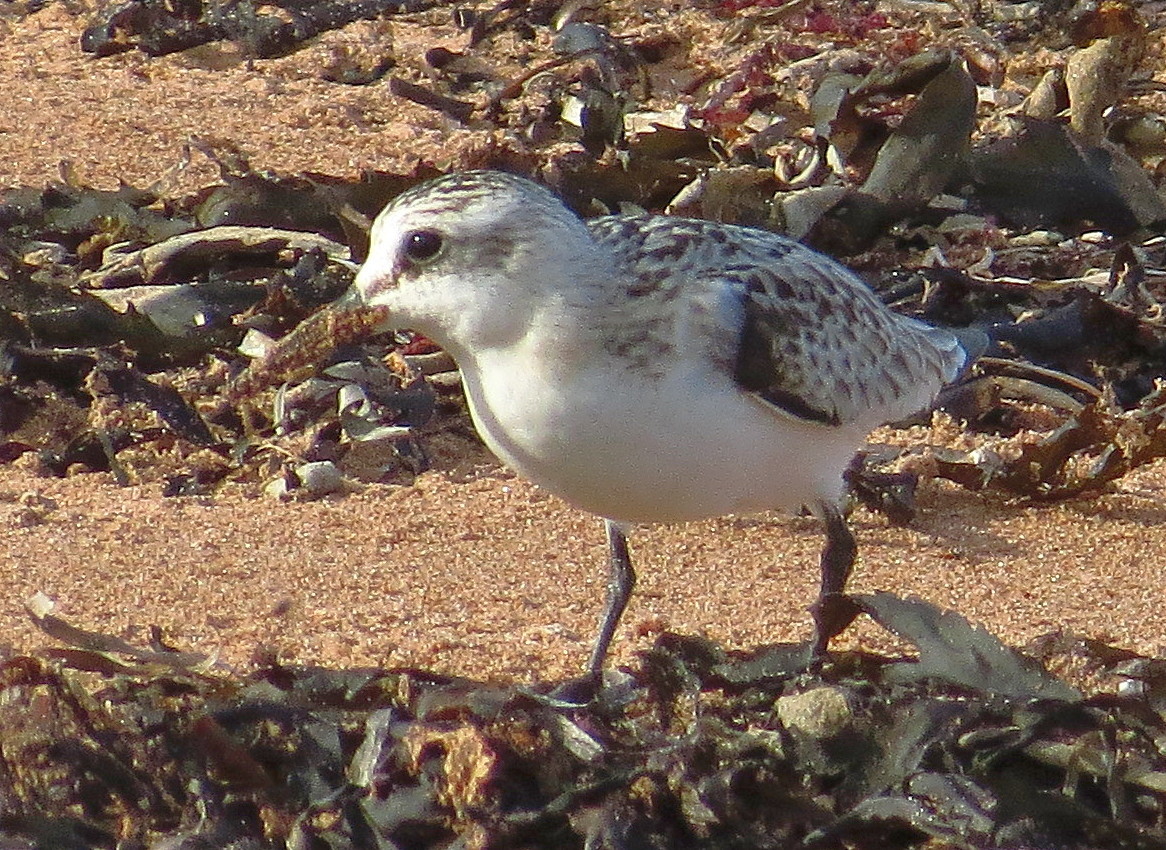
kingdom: Animalia
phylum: Chordata
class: Aves
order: Charadriiformes
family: Scolopacidae
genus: Calidris
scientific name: Calidris alba
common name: Sanderling
